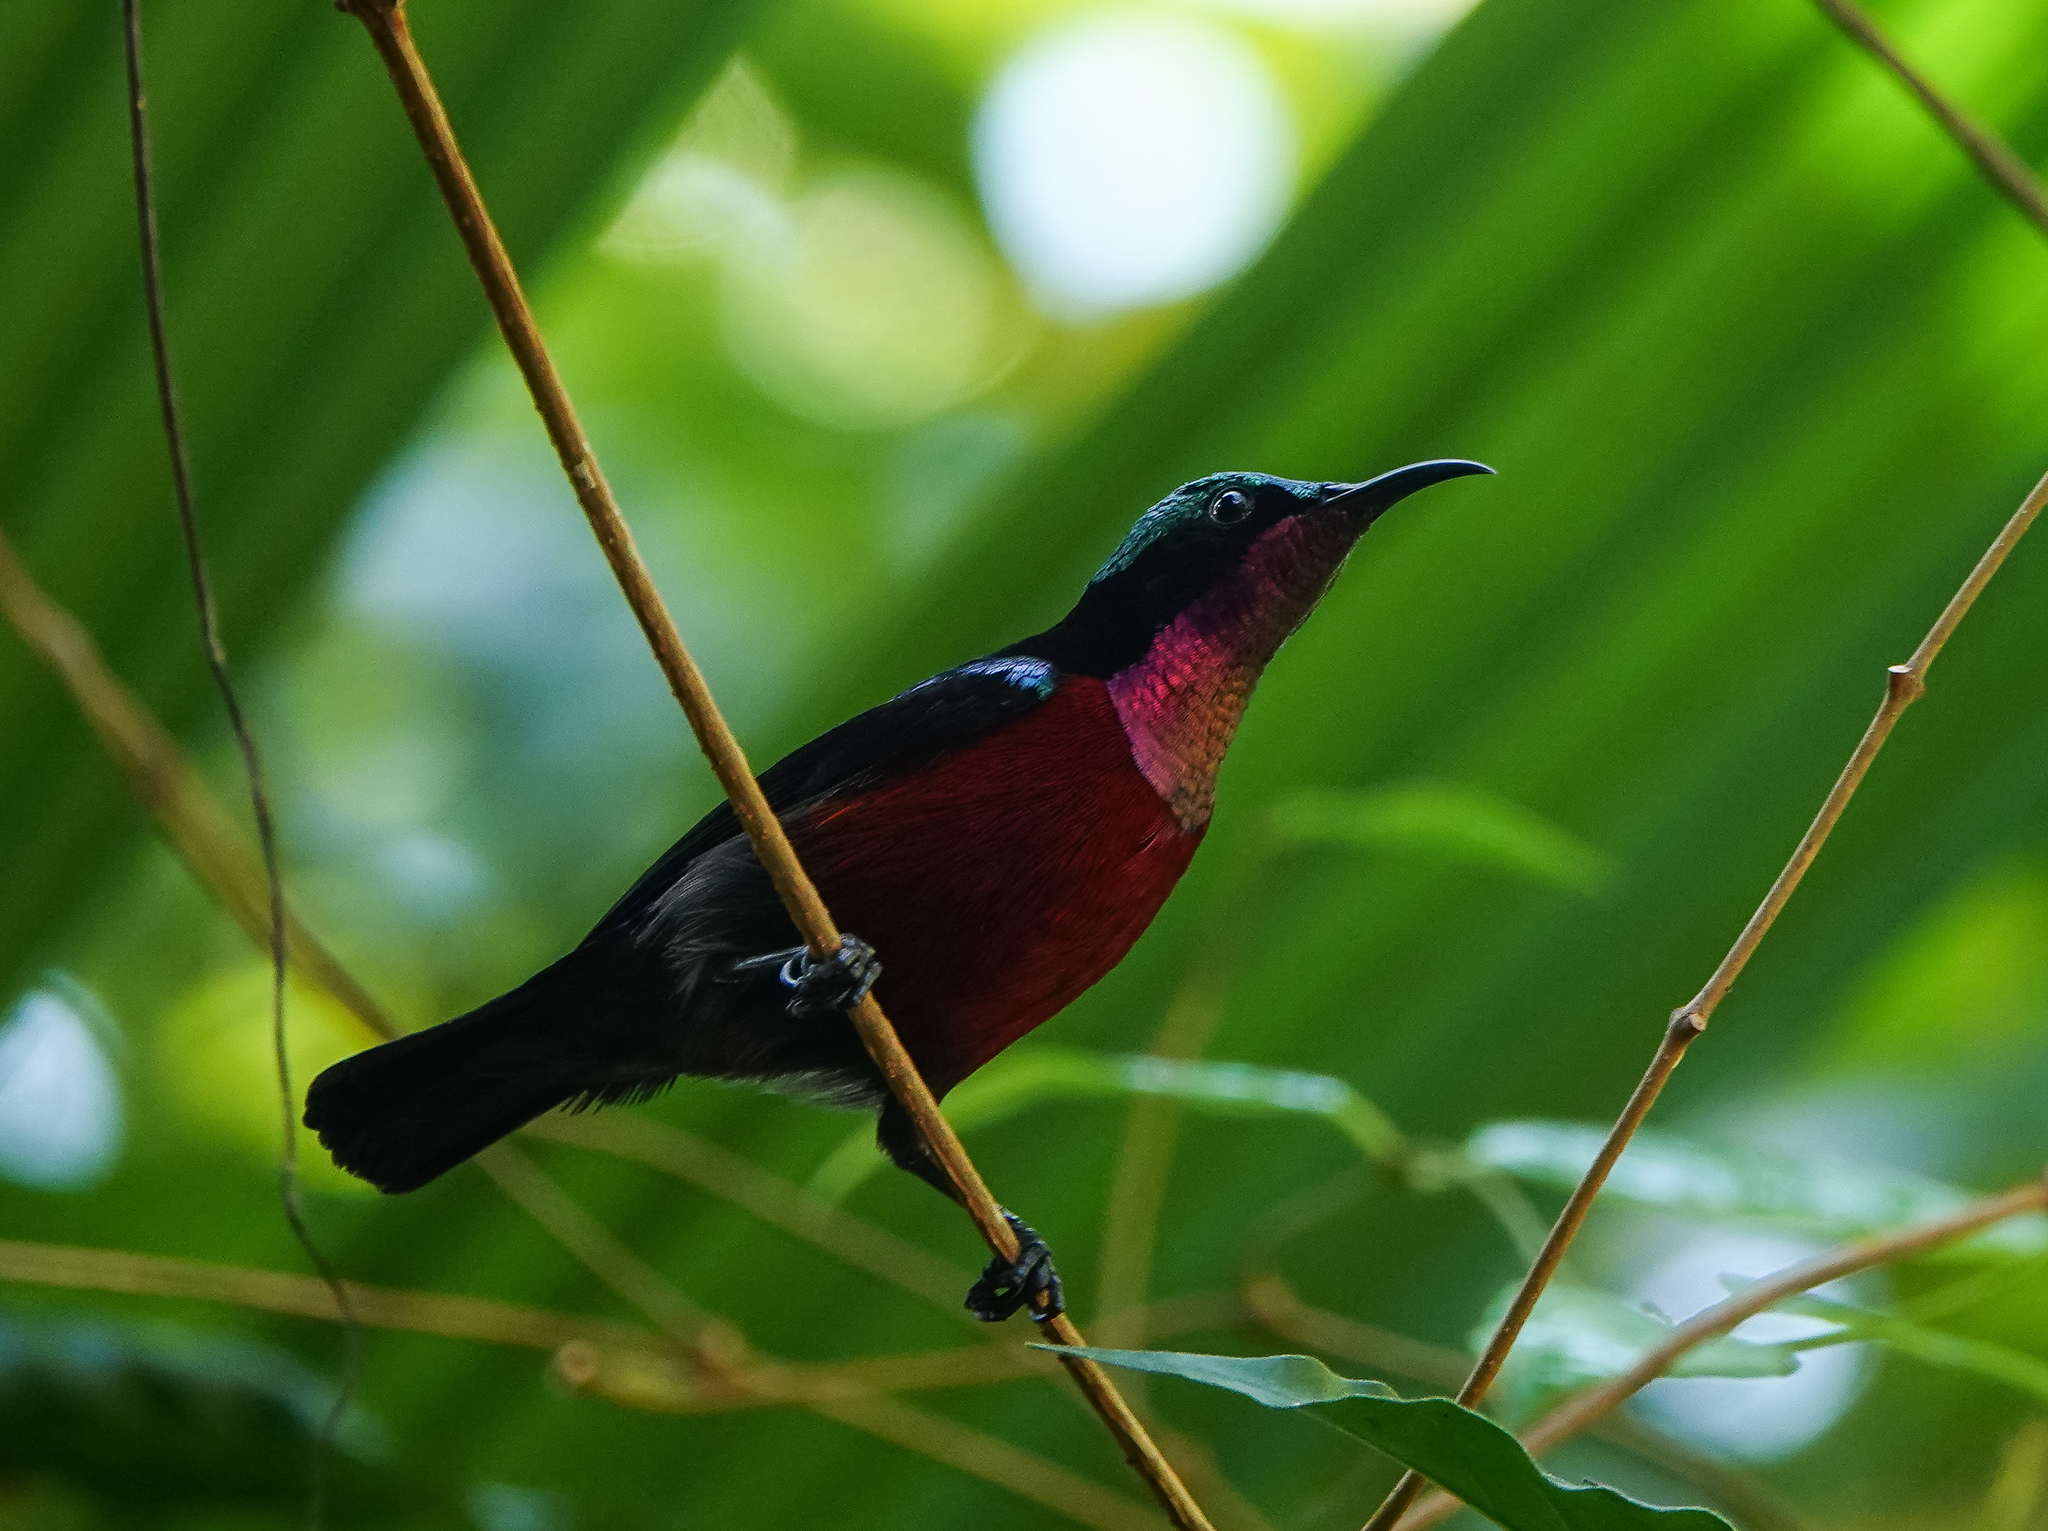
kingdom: Animalia
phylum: Chordata
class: Aves
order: Passeriformes
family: Nectariniidae
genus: Leptocoma
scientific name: Leptocoma brasiliana
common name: Van hasselt's sunbird
